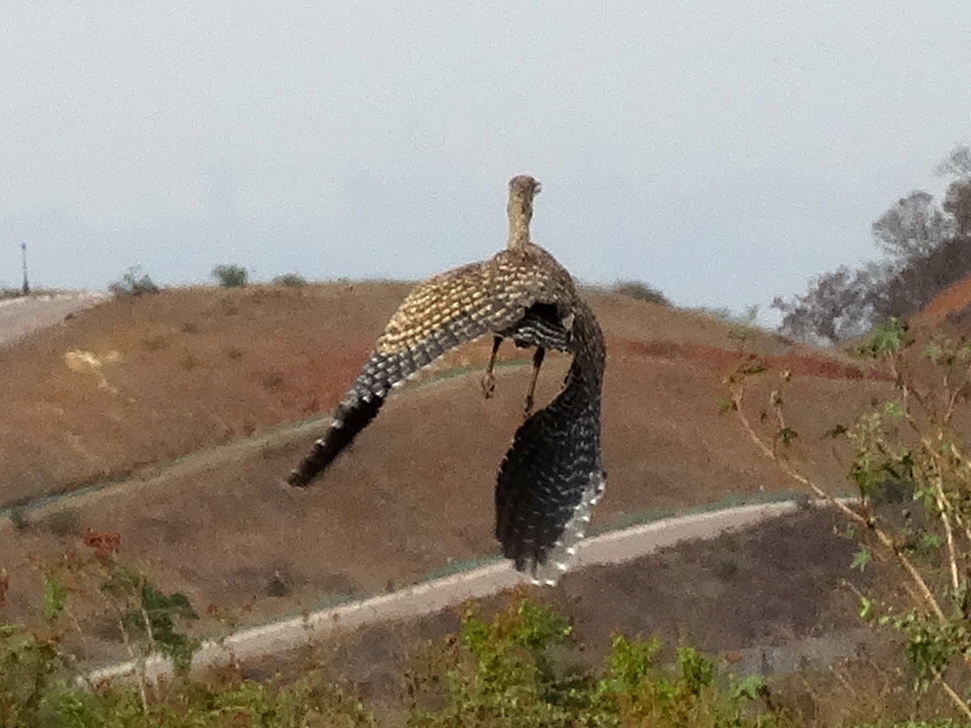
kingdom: Animalia
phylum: Chordata
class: Aves
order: Pelecaniformes
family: Ardeidae
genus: Tigrisoma
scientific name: Tigrisoma mexicanum
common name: Bare-throated tiger-heron
